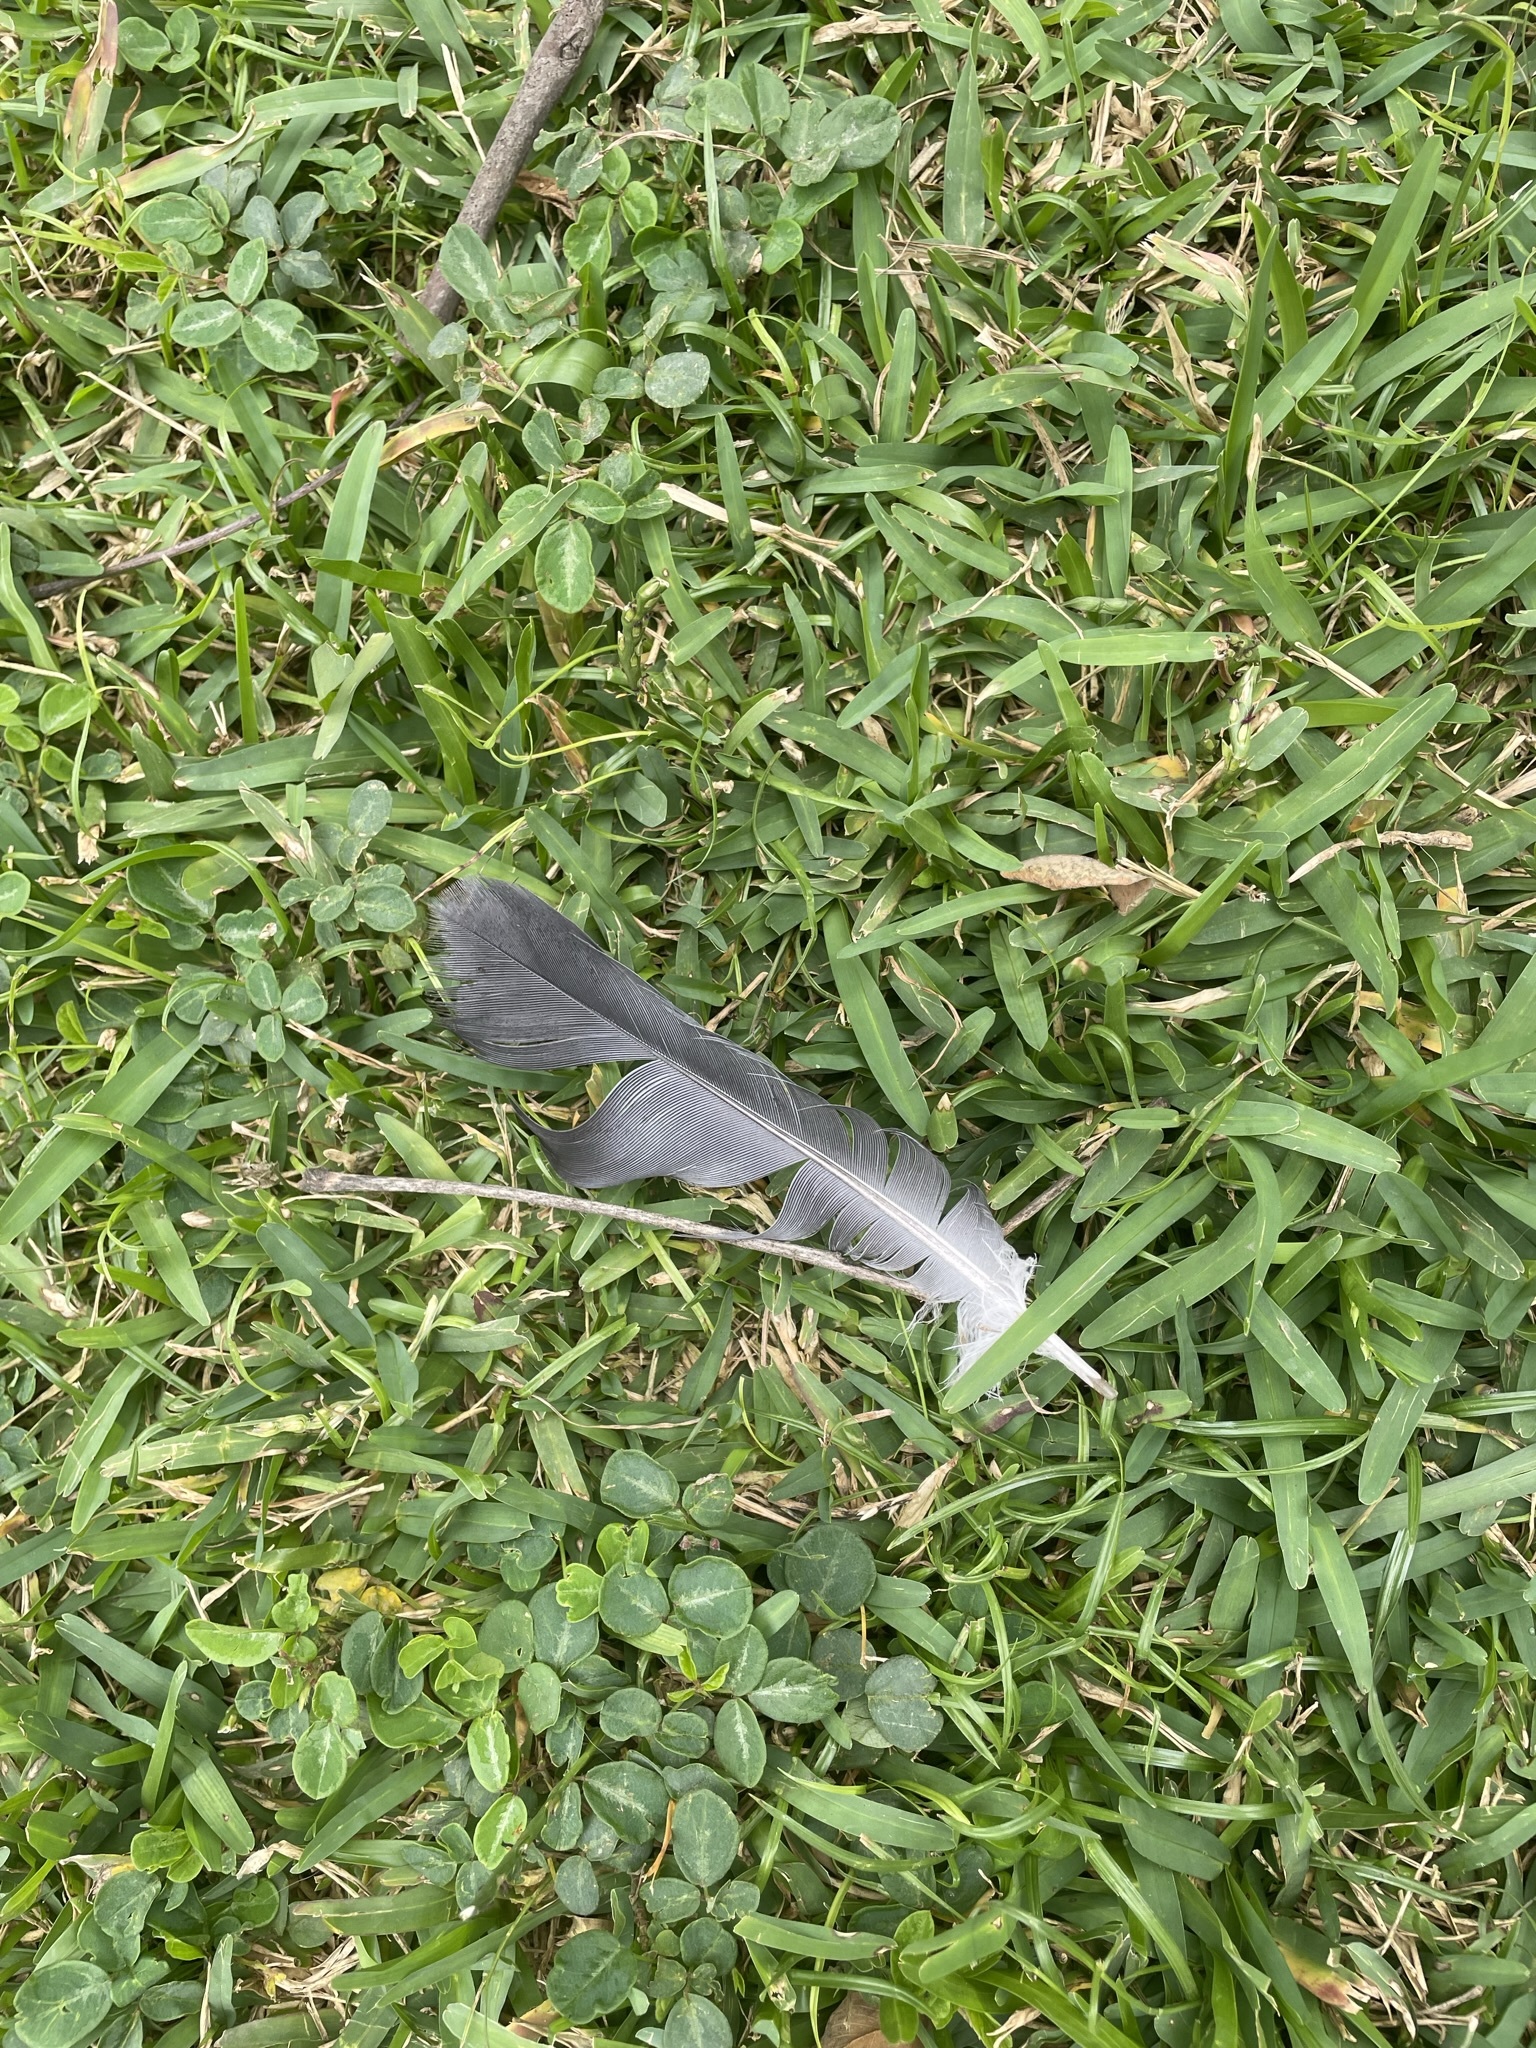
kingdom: Animalia
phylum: Chordata
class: Aves
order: Columbiformes
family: Columbidae
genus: Columba
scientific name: Columba livia
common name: Rock pigeon
